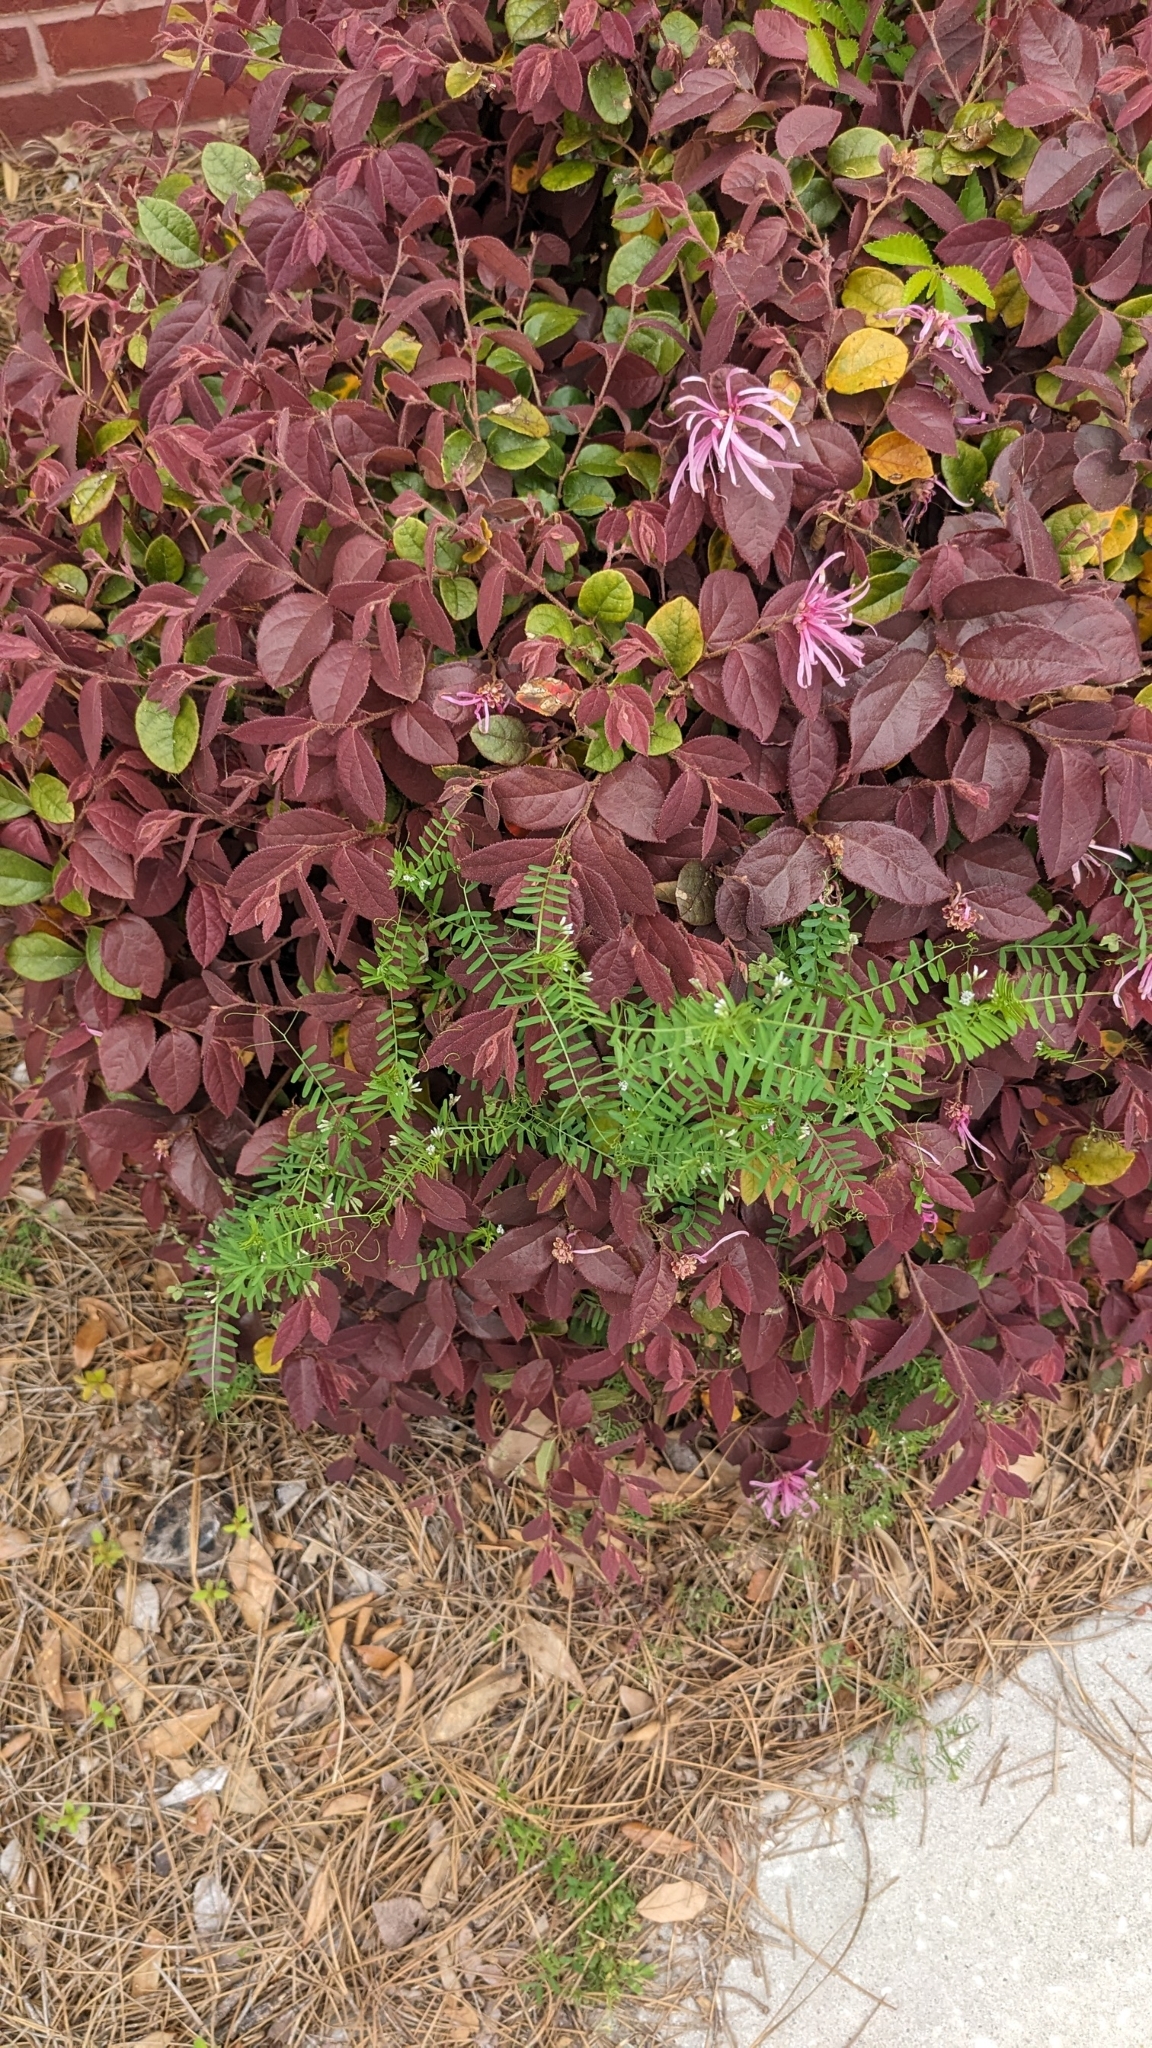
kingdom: Plantae
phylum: Tracheophyta
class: Magnoliopsida
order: Fabales
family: Fabaceae
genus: Vicia
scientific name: Vicia hirsuta
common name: Tiny vetch
